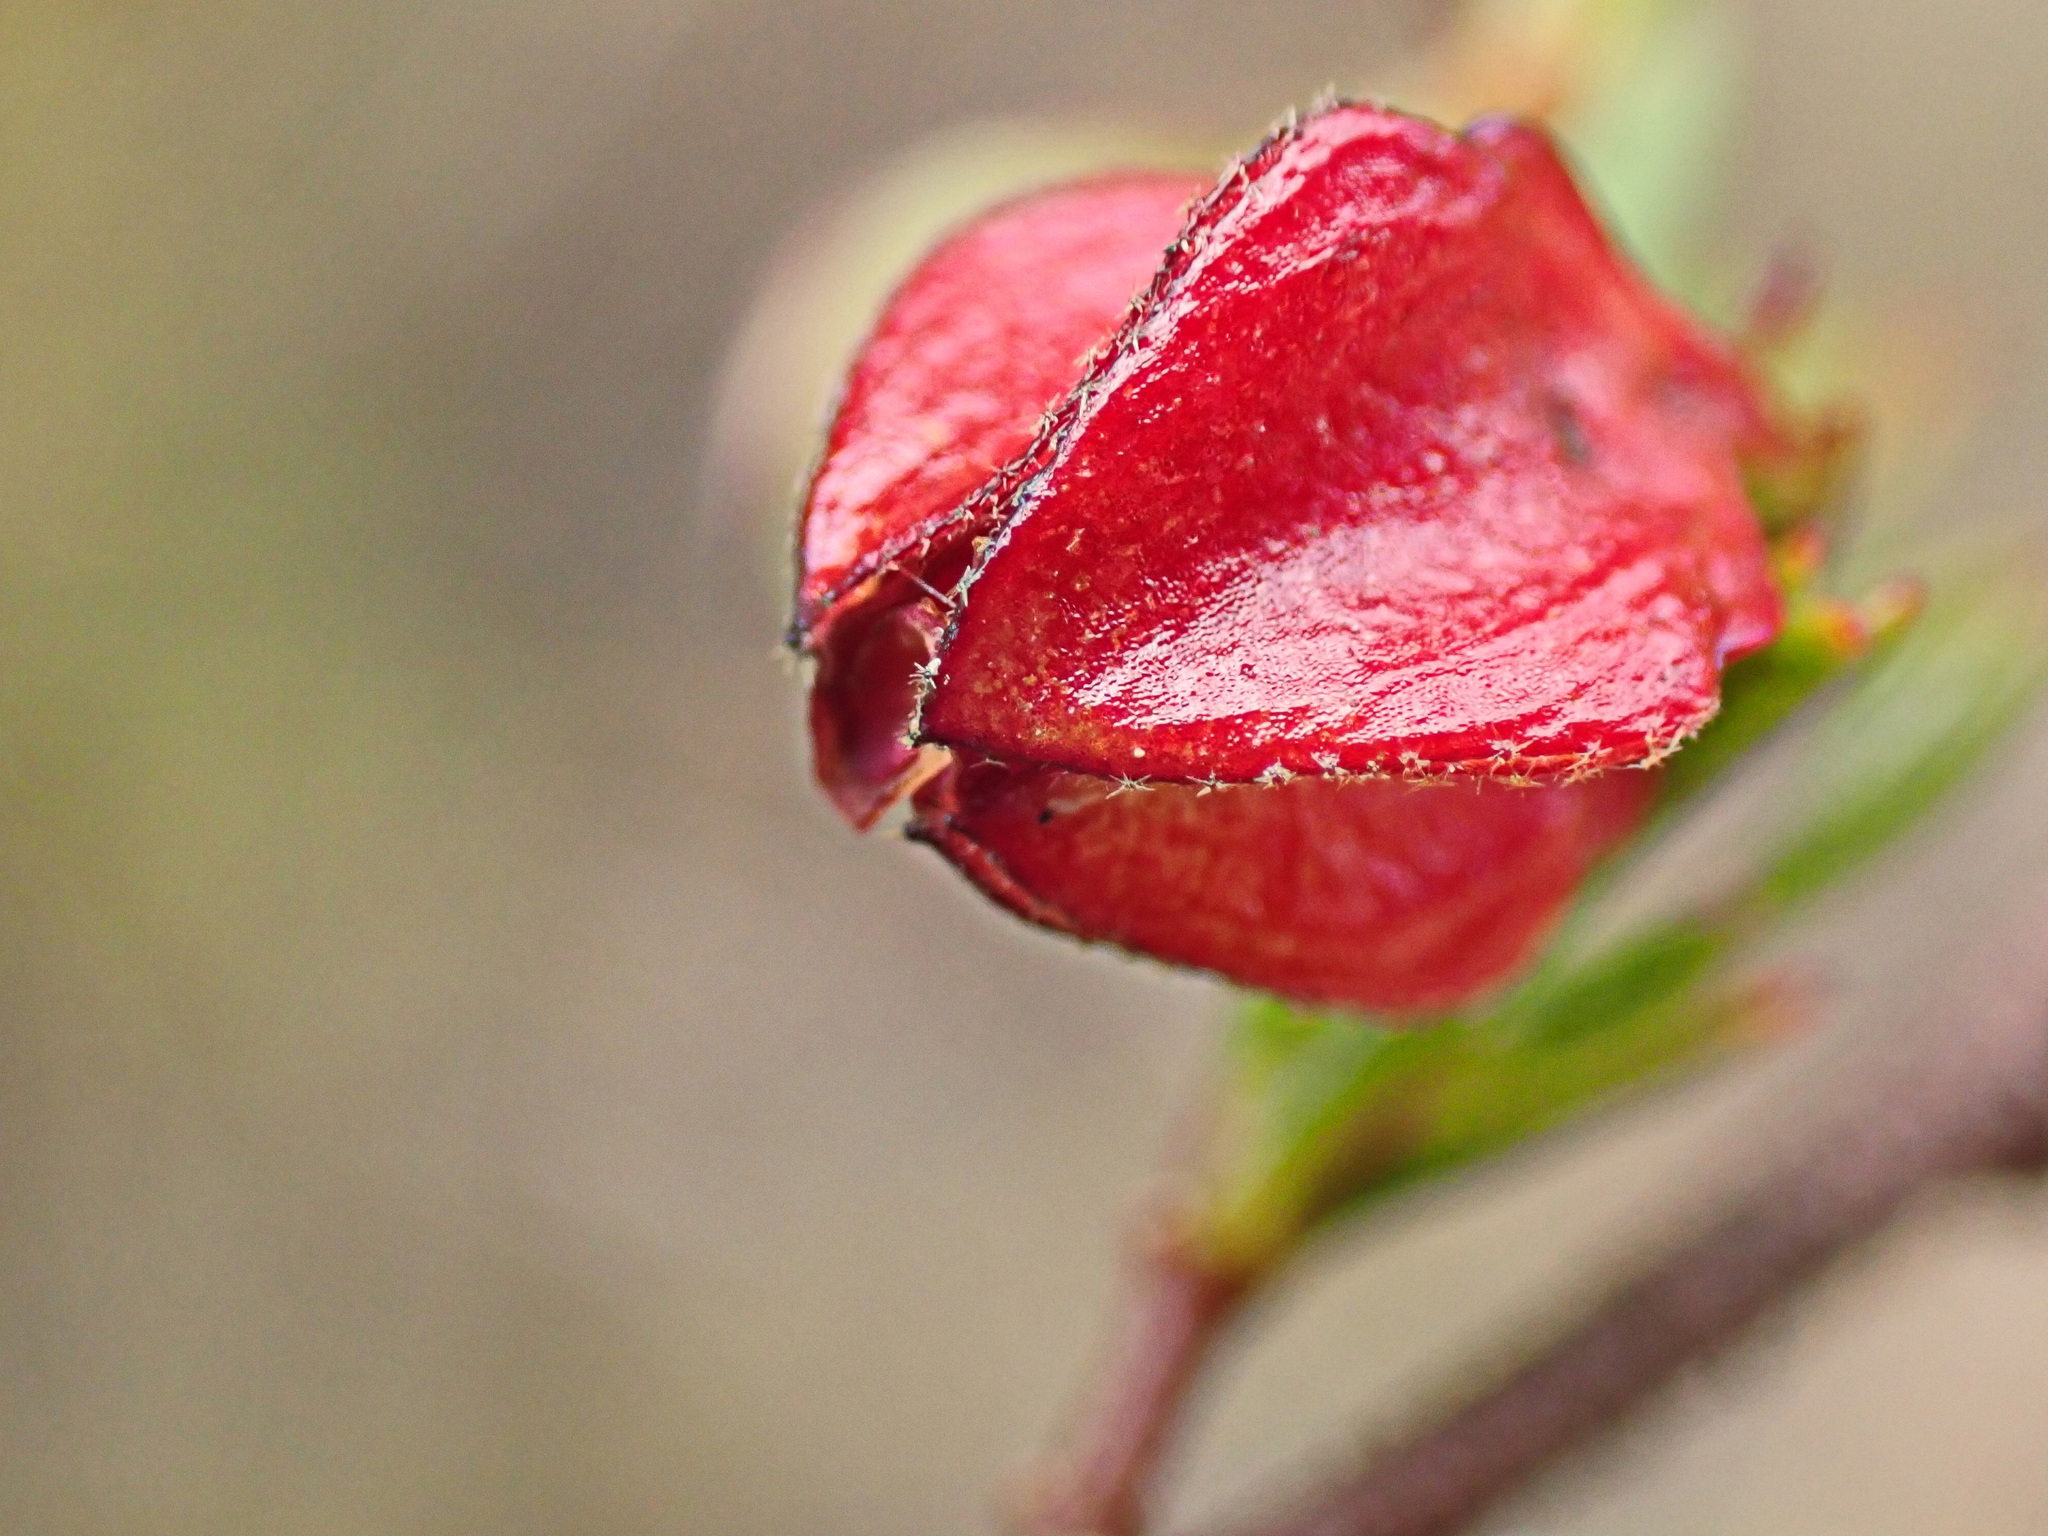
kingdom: Plantae
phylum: Tracheophyta
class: Magnoliopsida
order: Malvales
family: Malvaceae
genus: Hermannia
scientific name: Hermannia angularis
